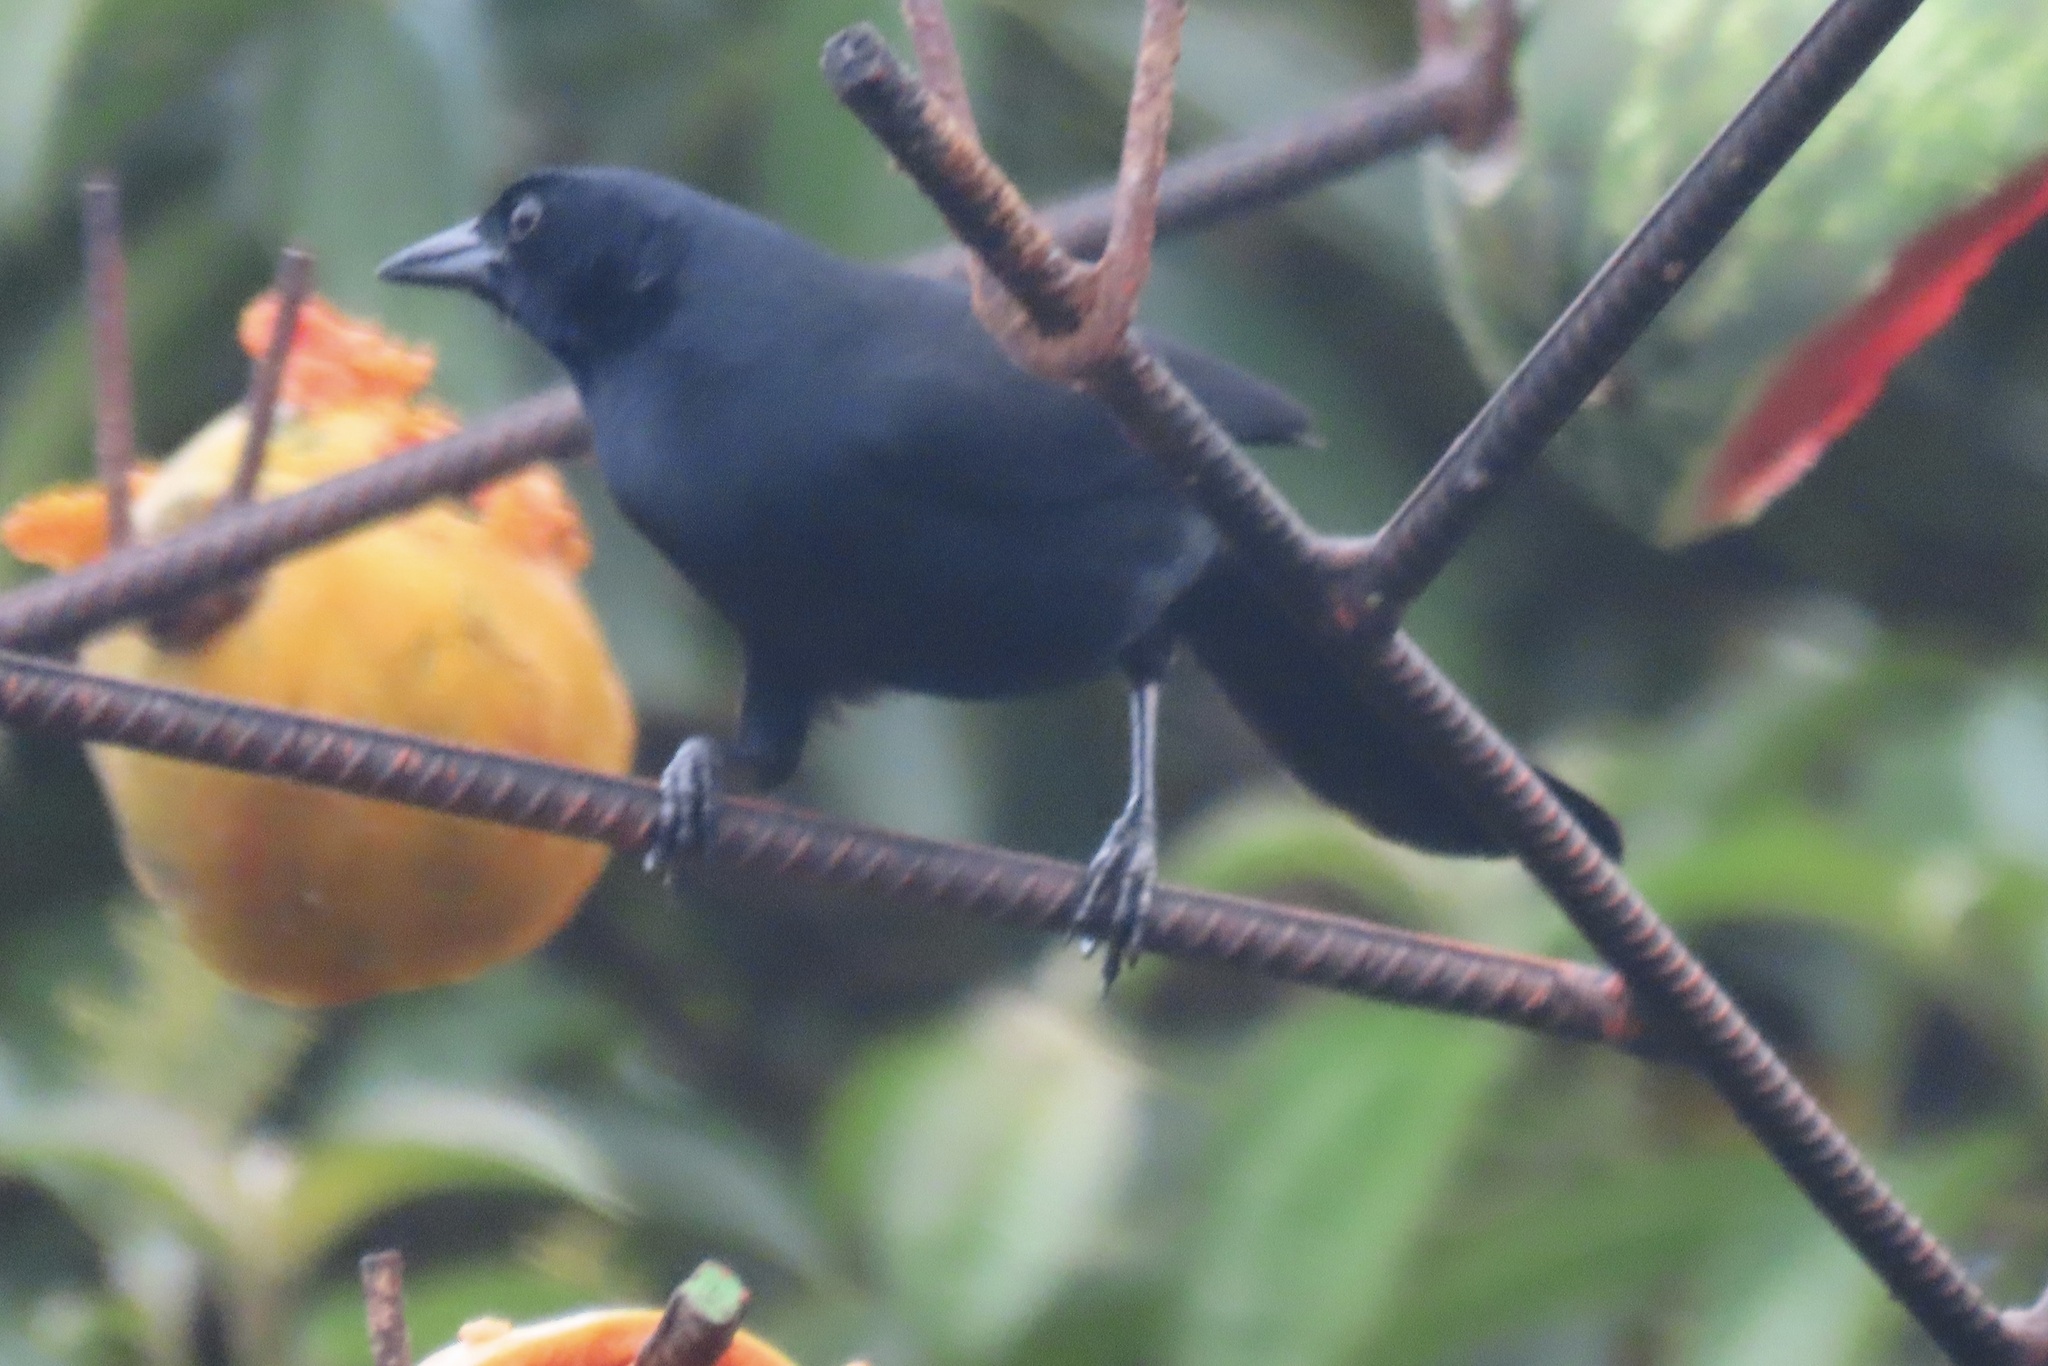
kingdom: Animalia
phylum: Chordata
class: Aves
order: Passeriformes
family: Icteridae
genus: Dives
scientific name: Dives dives
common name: Melodious blackbird
